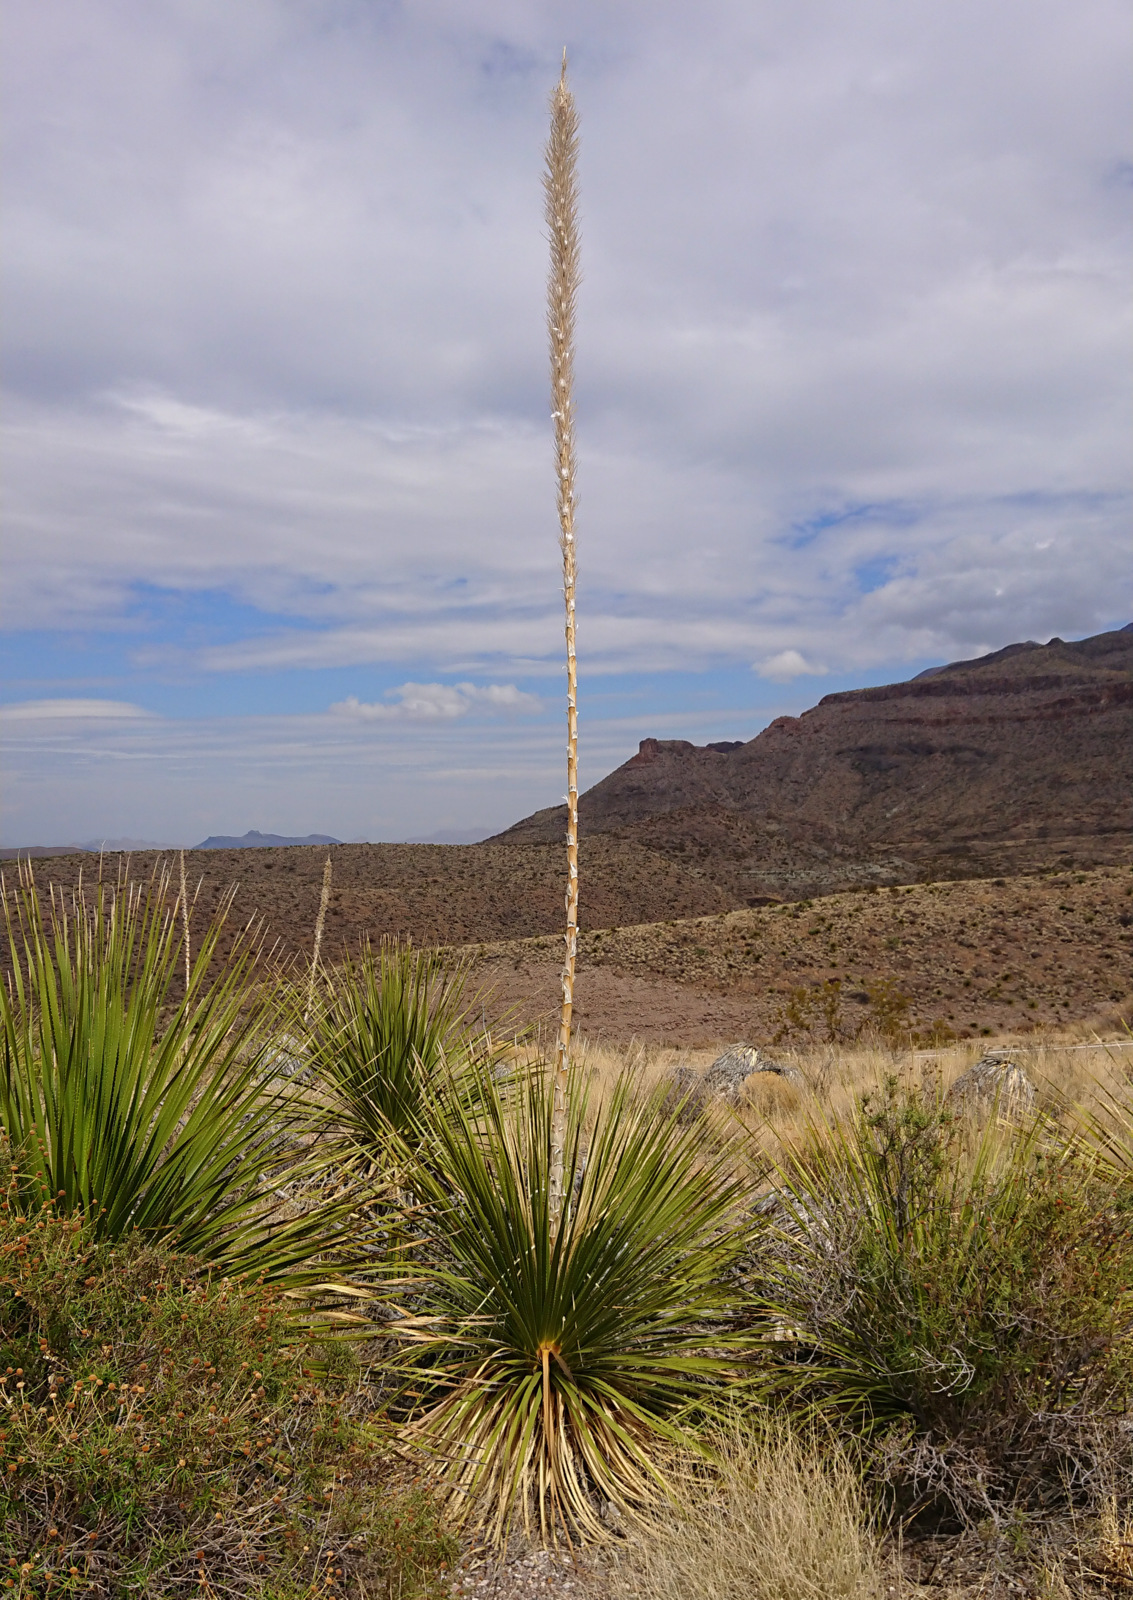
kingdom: Plantae
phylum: Tracheophyta
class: Liliopsida
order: Asparagales
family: Asparagaceae
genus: Dasylirion
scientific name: Dasylirion leiophyllum
